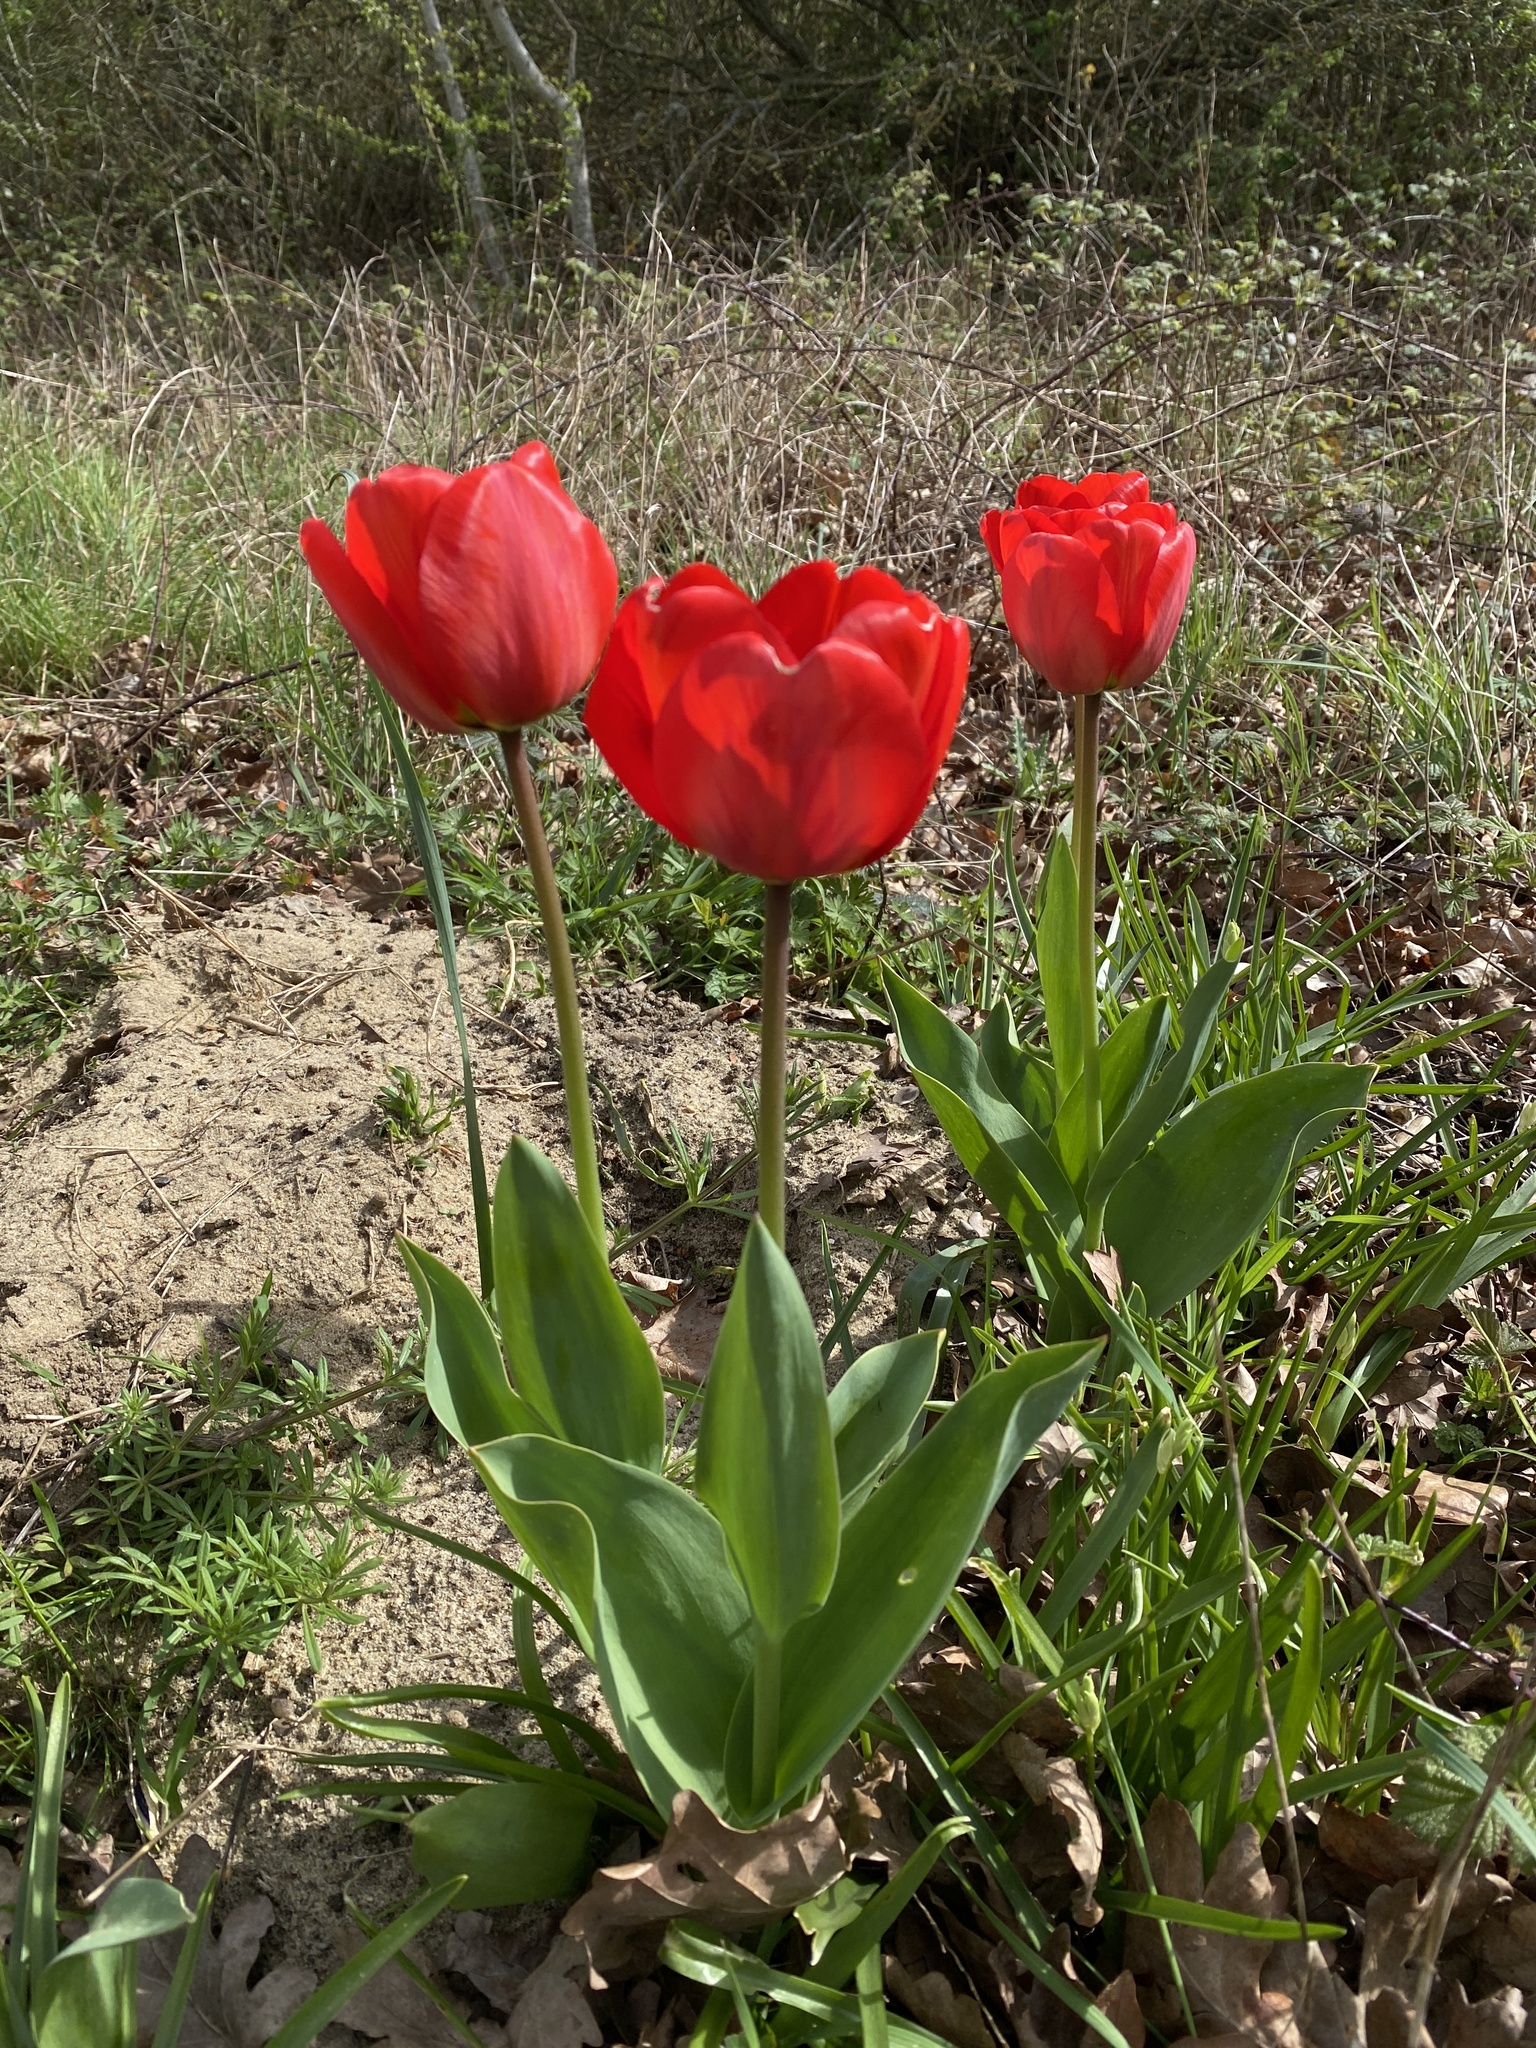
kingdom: Plantae
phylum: Tracheophyta
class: Liliopsida
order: Liliales
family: Liliaceae
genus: Tulipa
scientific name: Tulipa gesneriana
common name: Garden tulip
